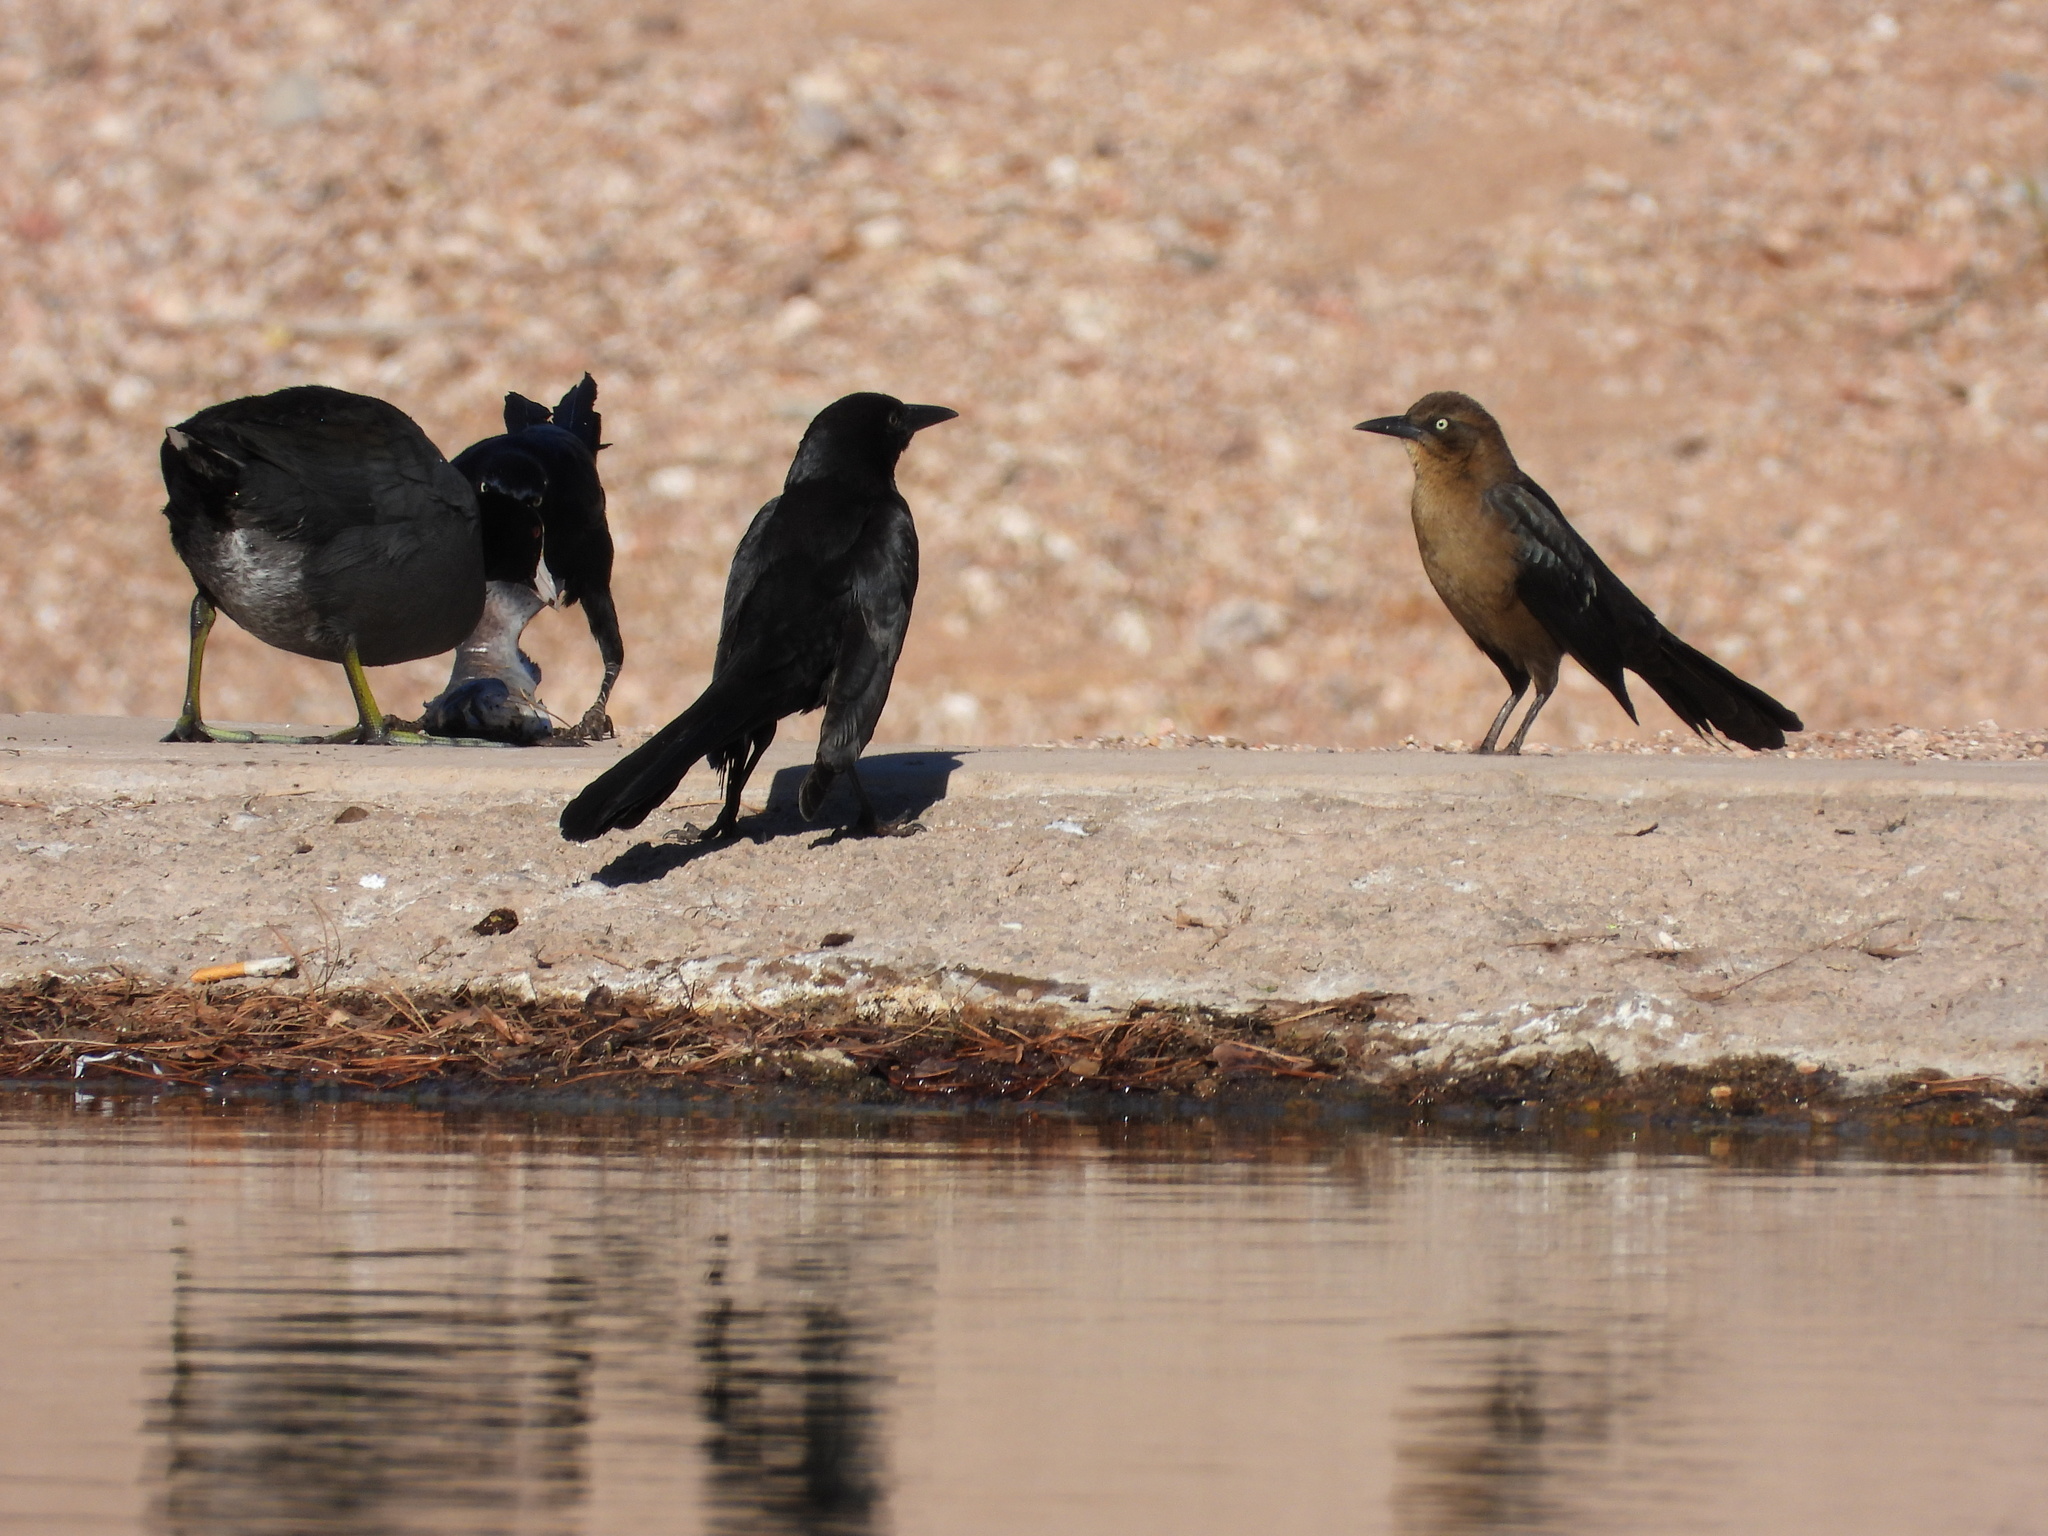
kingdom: Animalia
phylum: Chordata
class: Aves
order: Passeriformes
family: Icteridae
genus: Quiscalus
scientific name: Quiscalus mexicanus
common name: Great-tailed grackle
